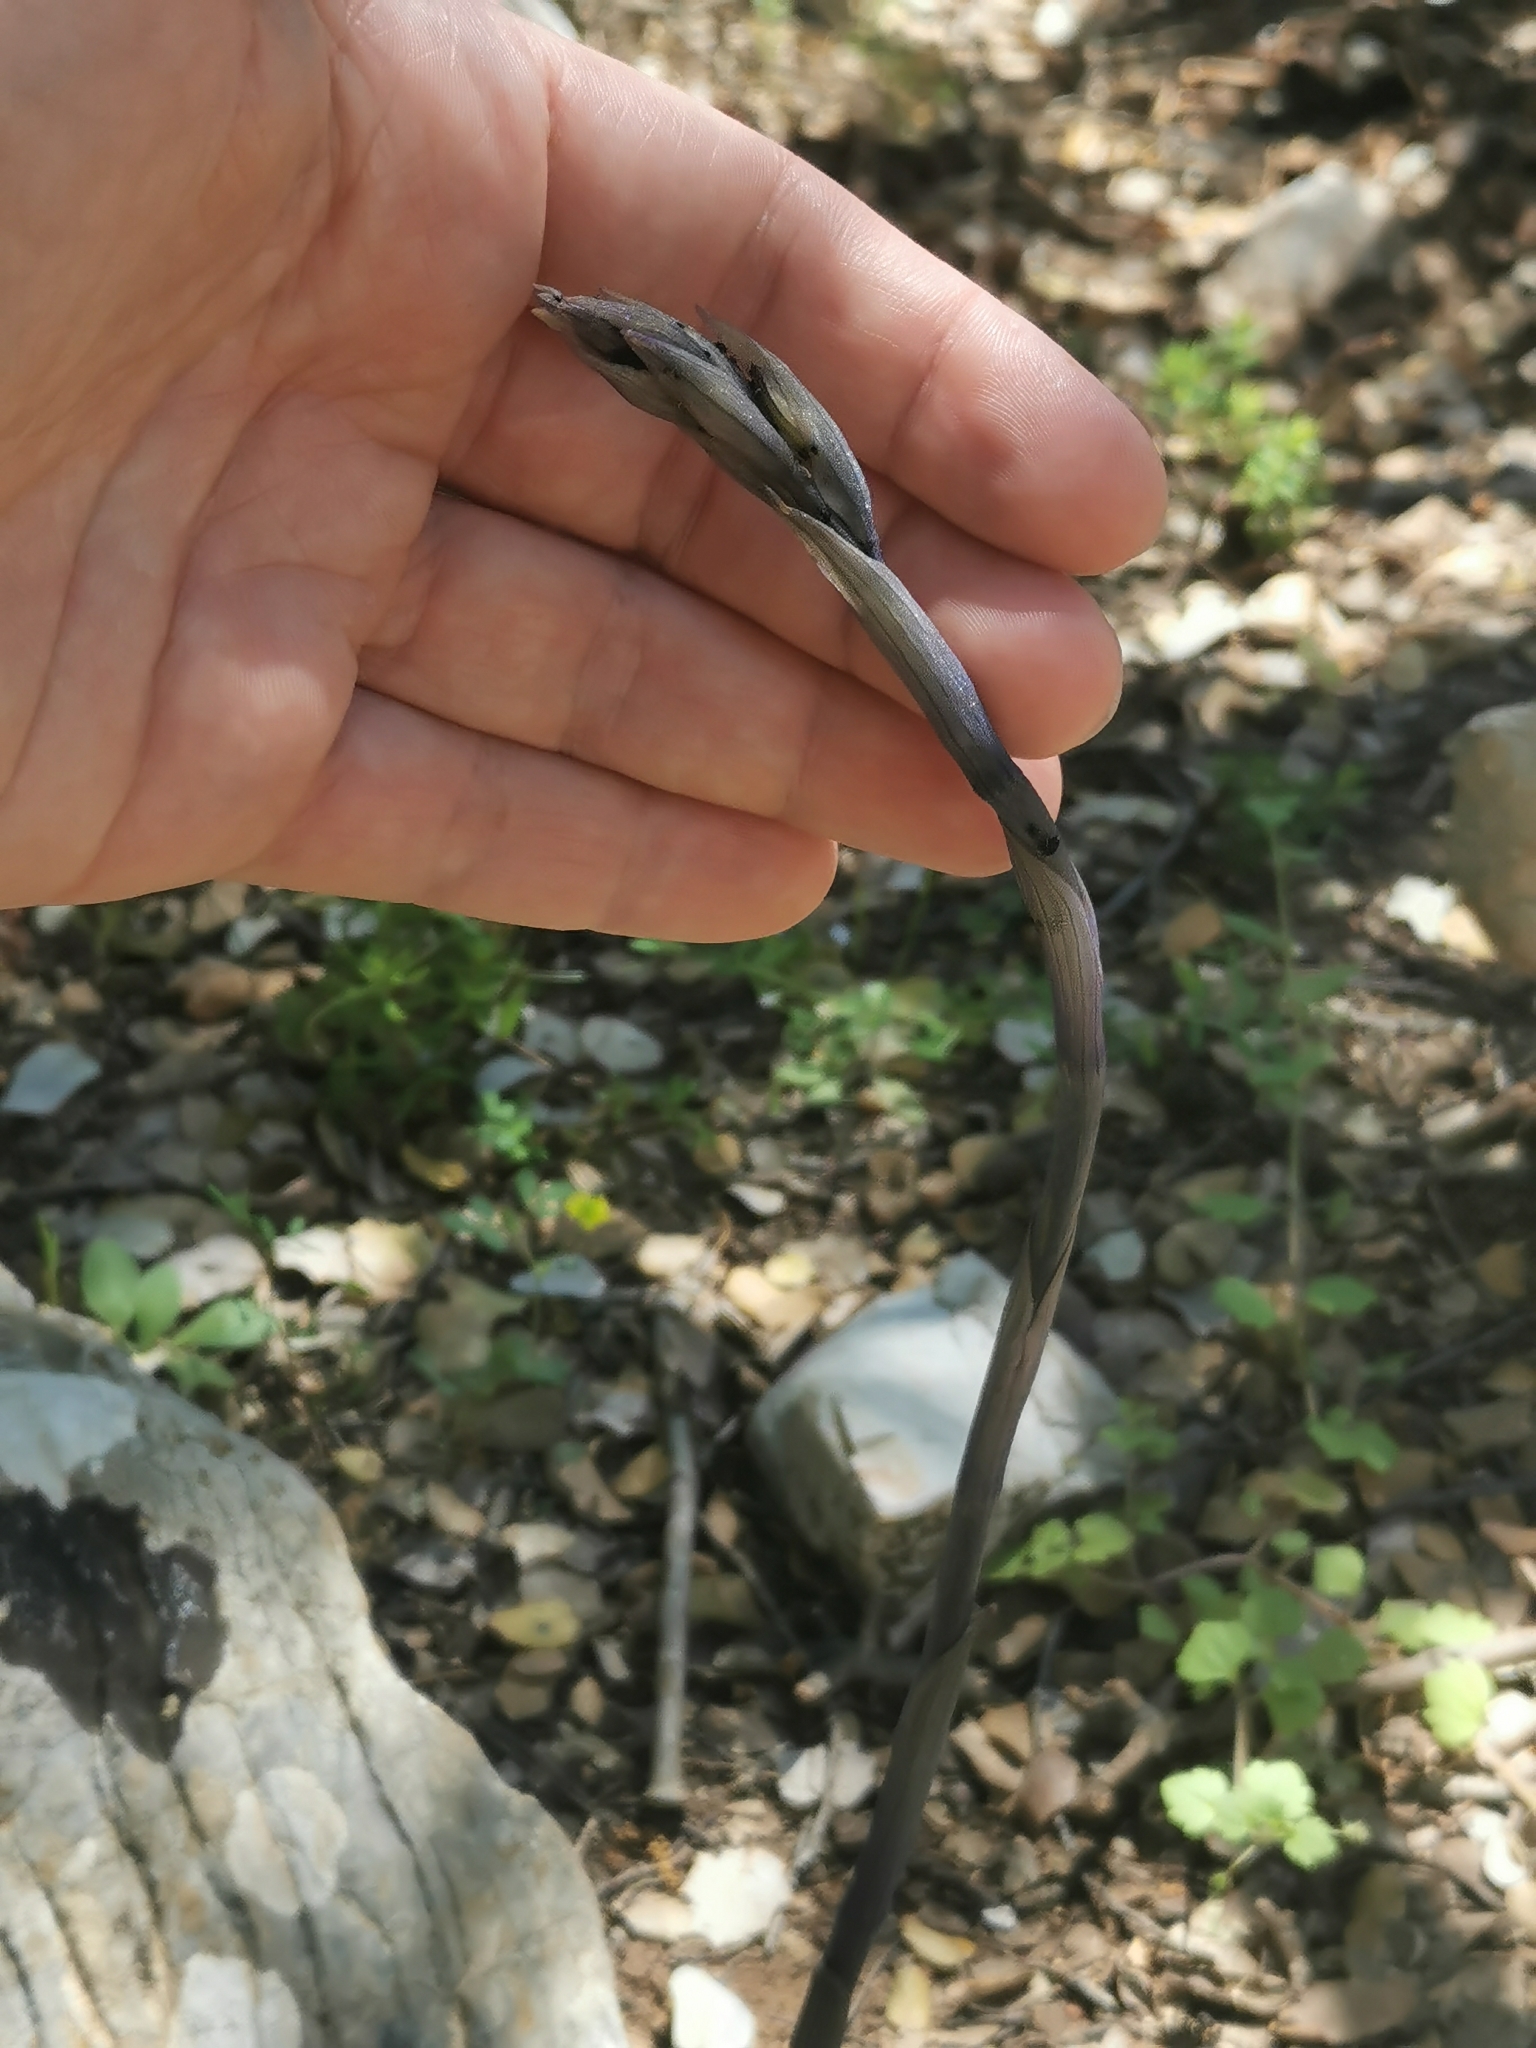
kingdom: Plantae
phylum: Tracheophyta
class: Liliopsida
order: Asparagales
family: Orchidaceae
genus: Limodorum
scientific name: Limodorum abortivum
